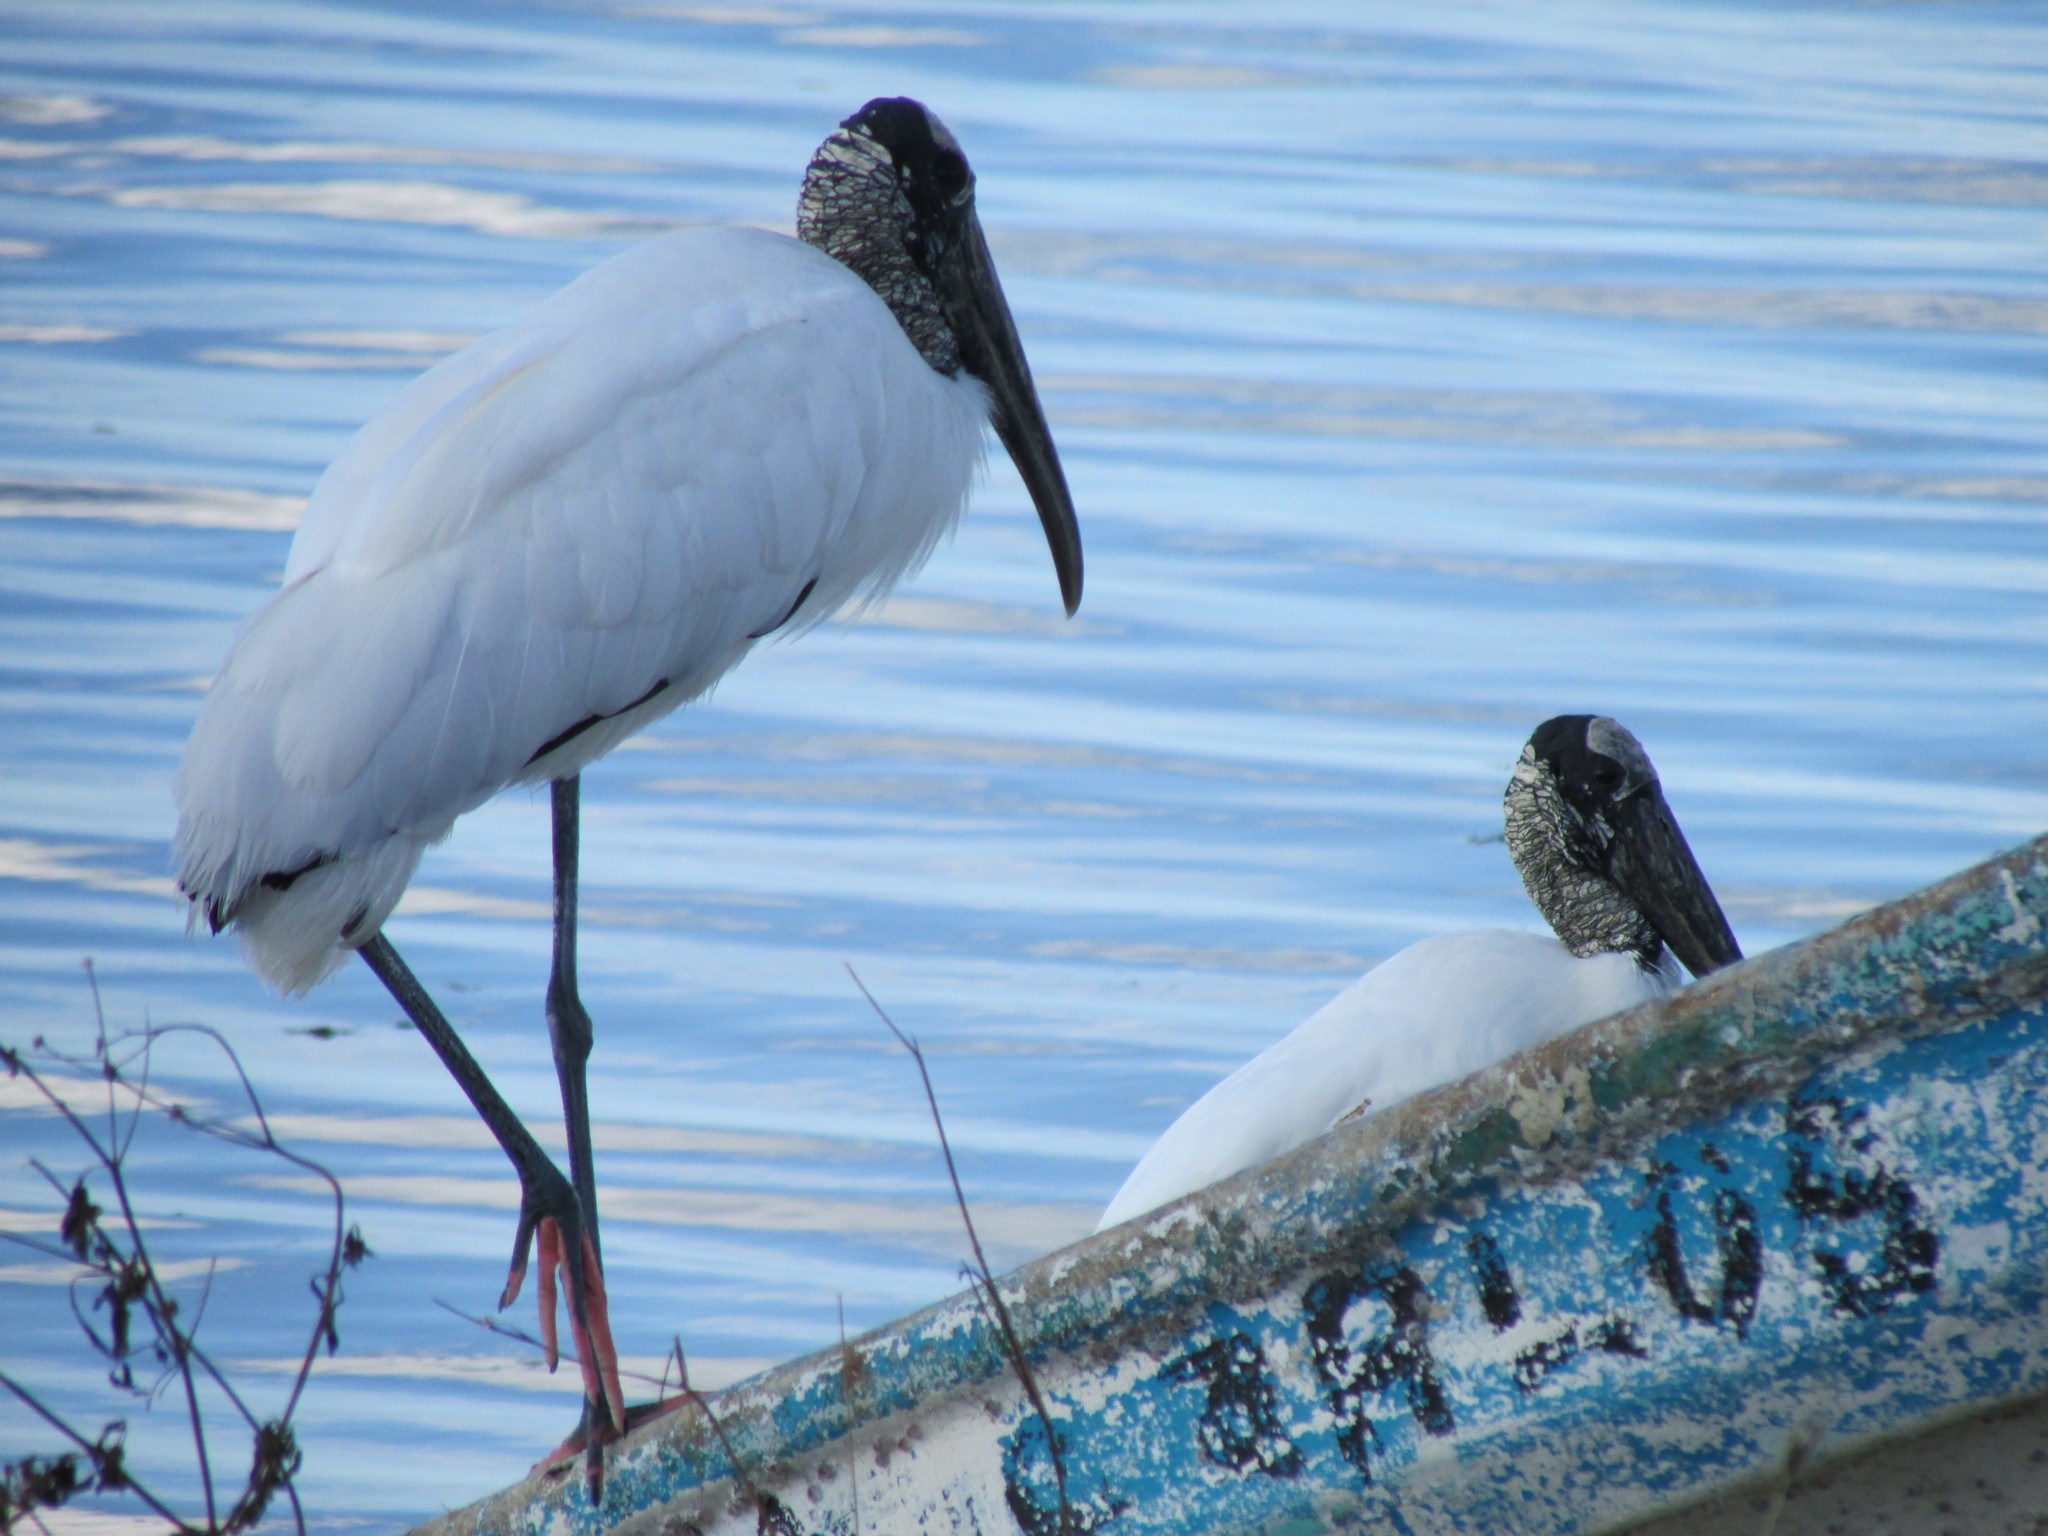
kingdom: Animalia
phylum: Chordata
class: Aves
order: Ciconiiformes
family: Ciconiidae
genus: Mycteria
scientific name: Mycteria americana
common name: Wood stork
